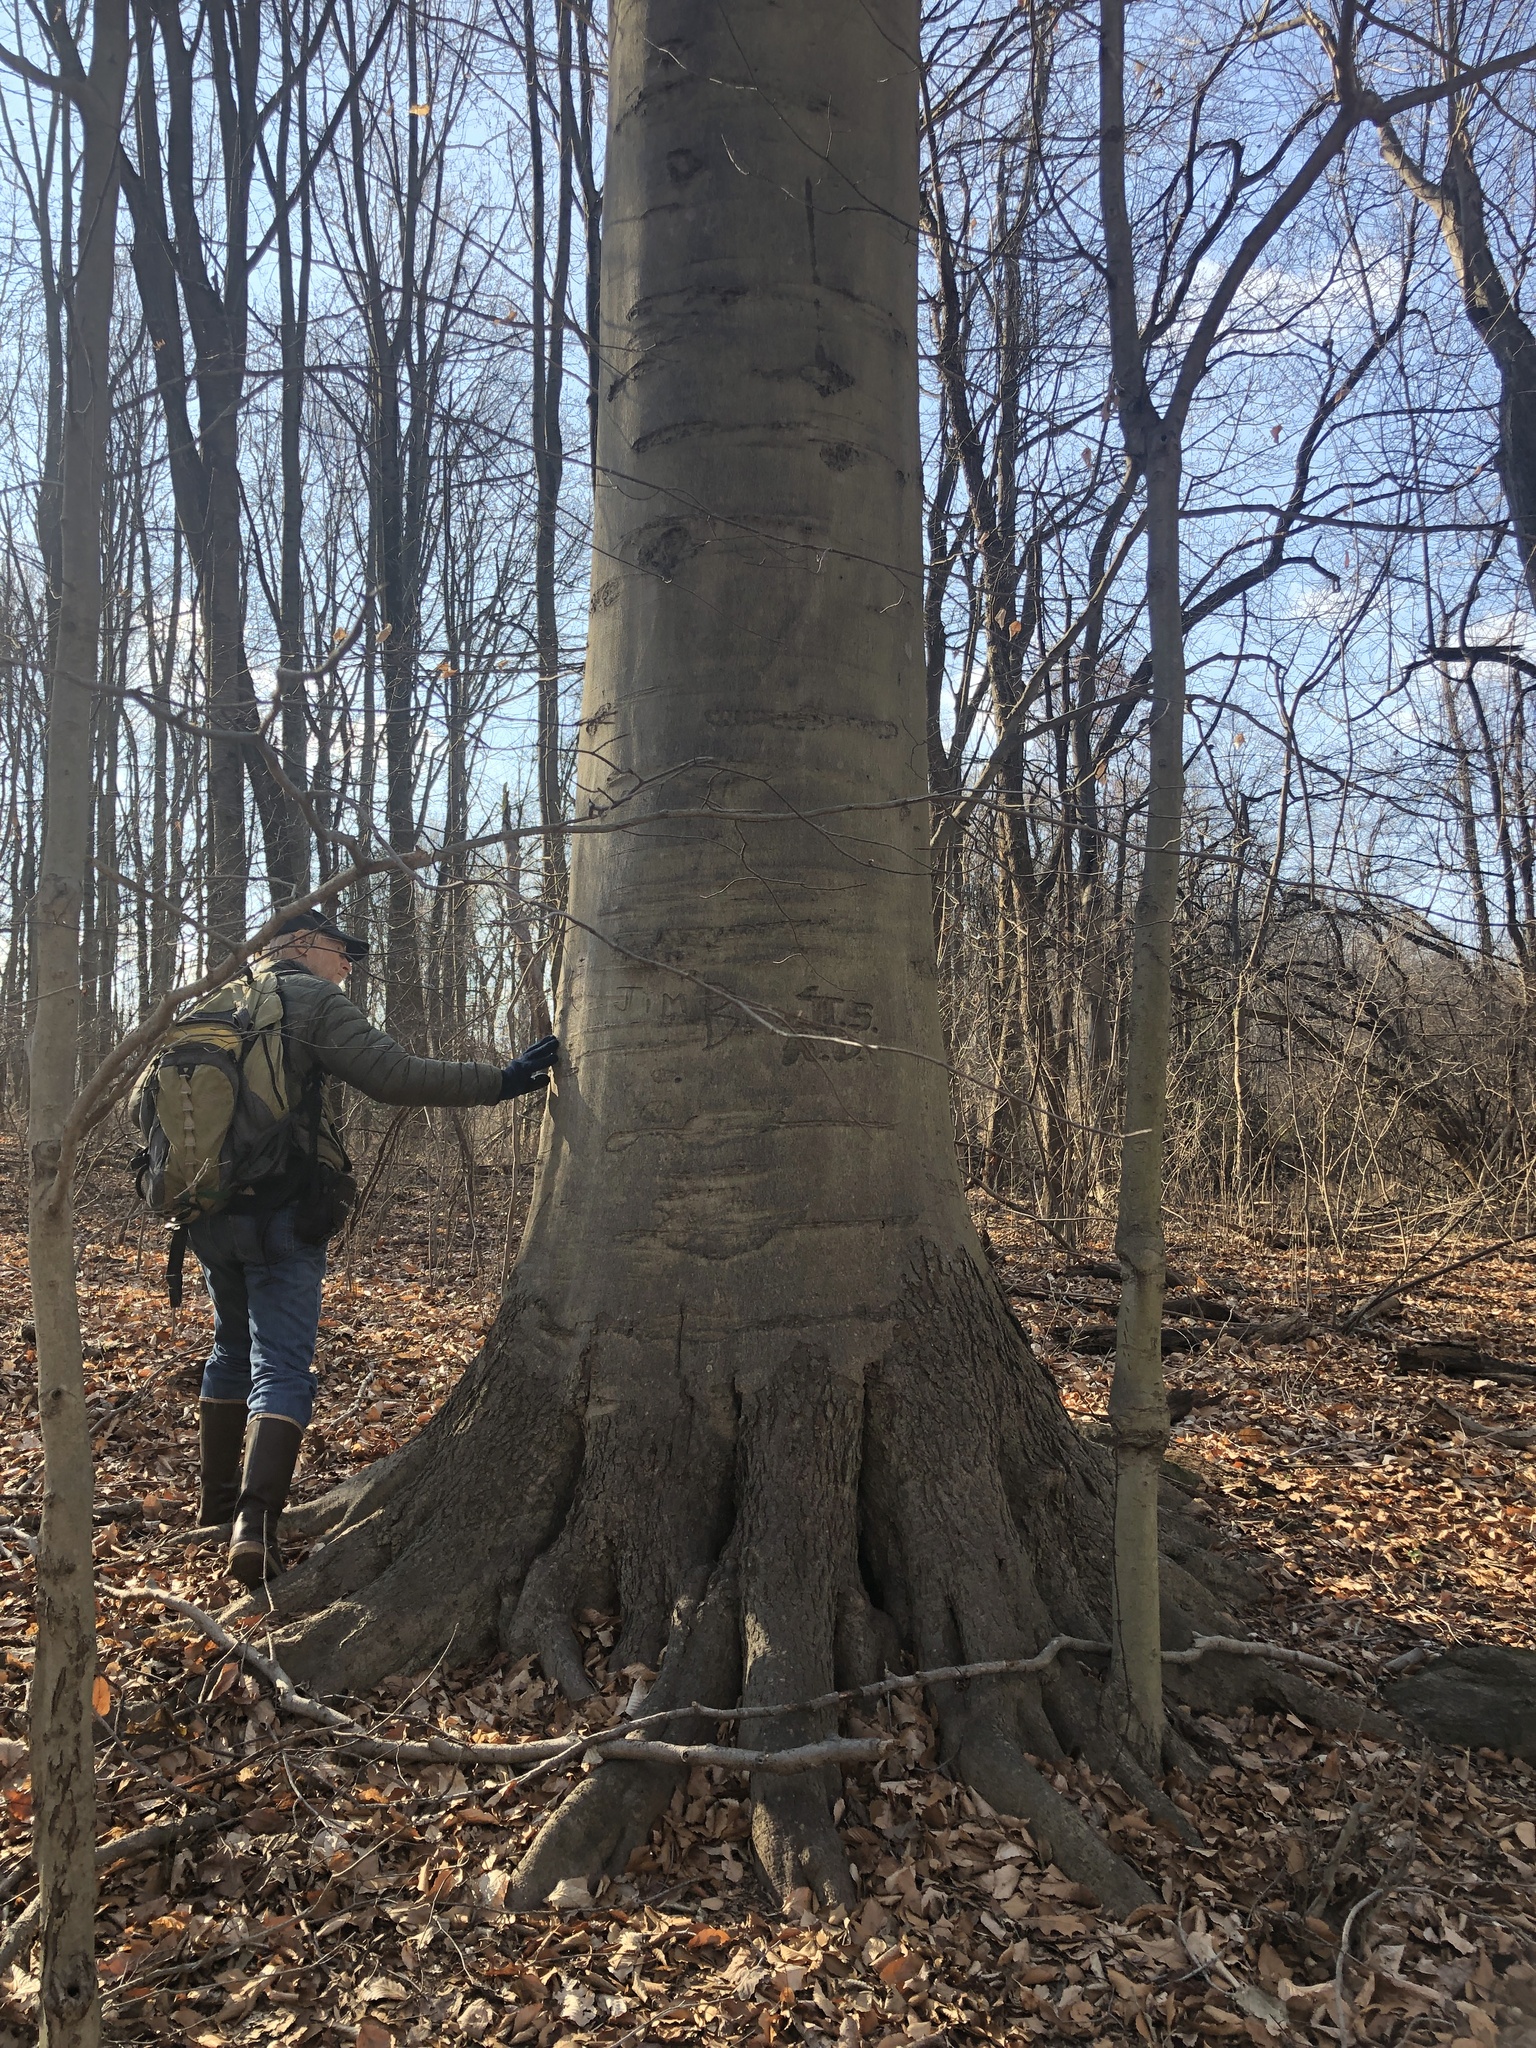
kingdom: Plantae
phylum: Tracheophyta
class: Magnoliopsida
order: Fagales
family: Fagaceae
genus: Fagus
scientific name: Fagus grandifolia
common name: American beech
